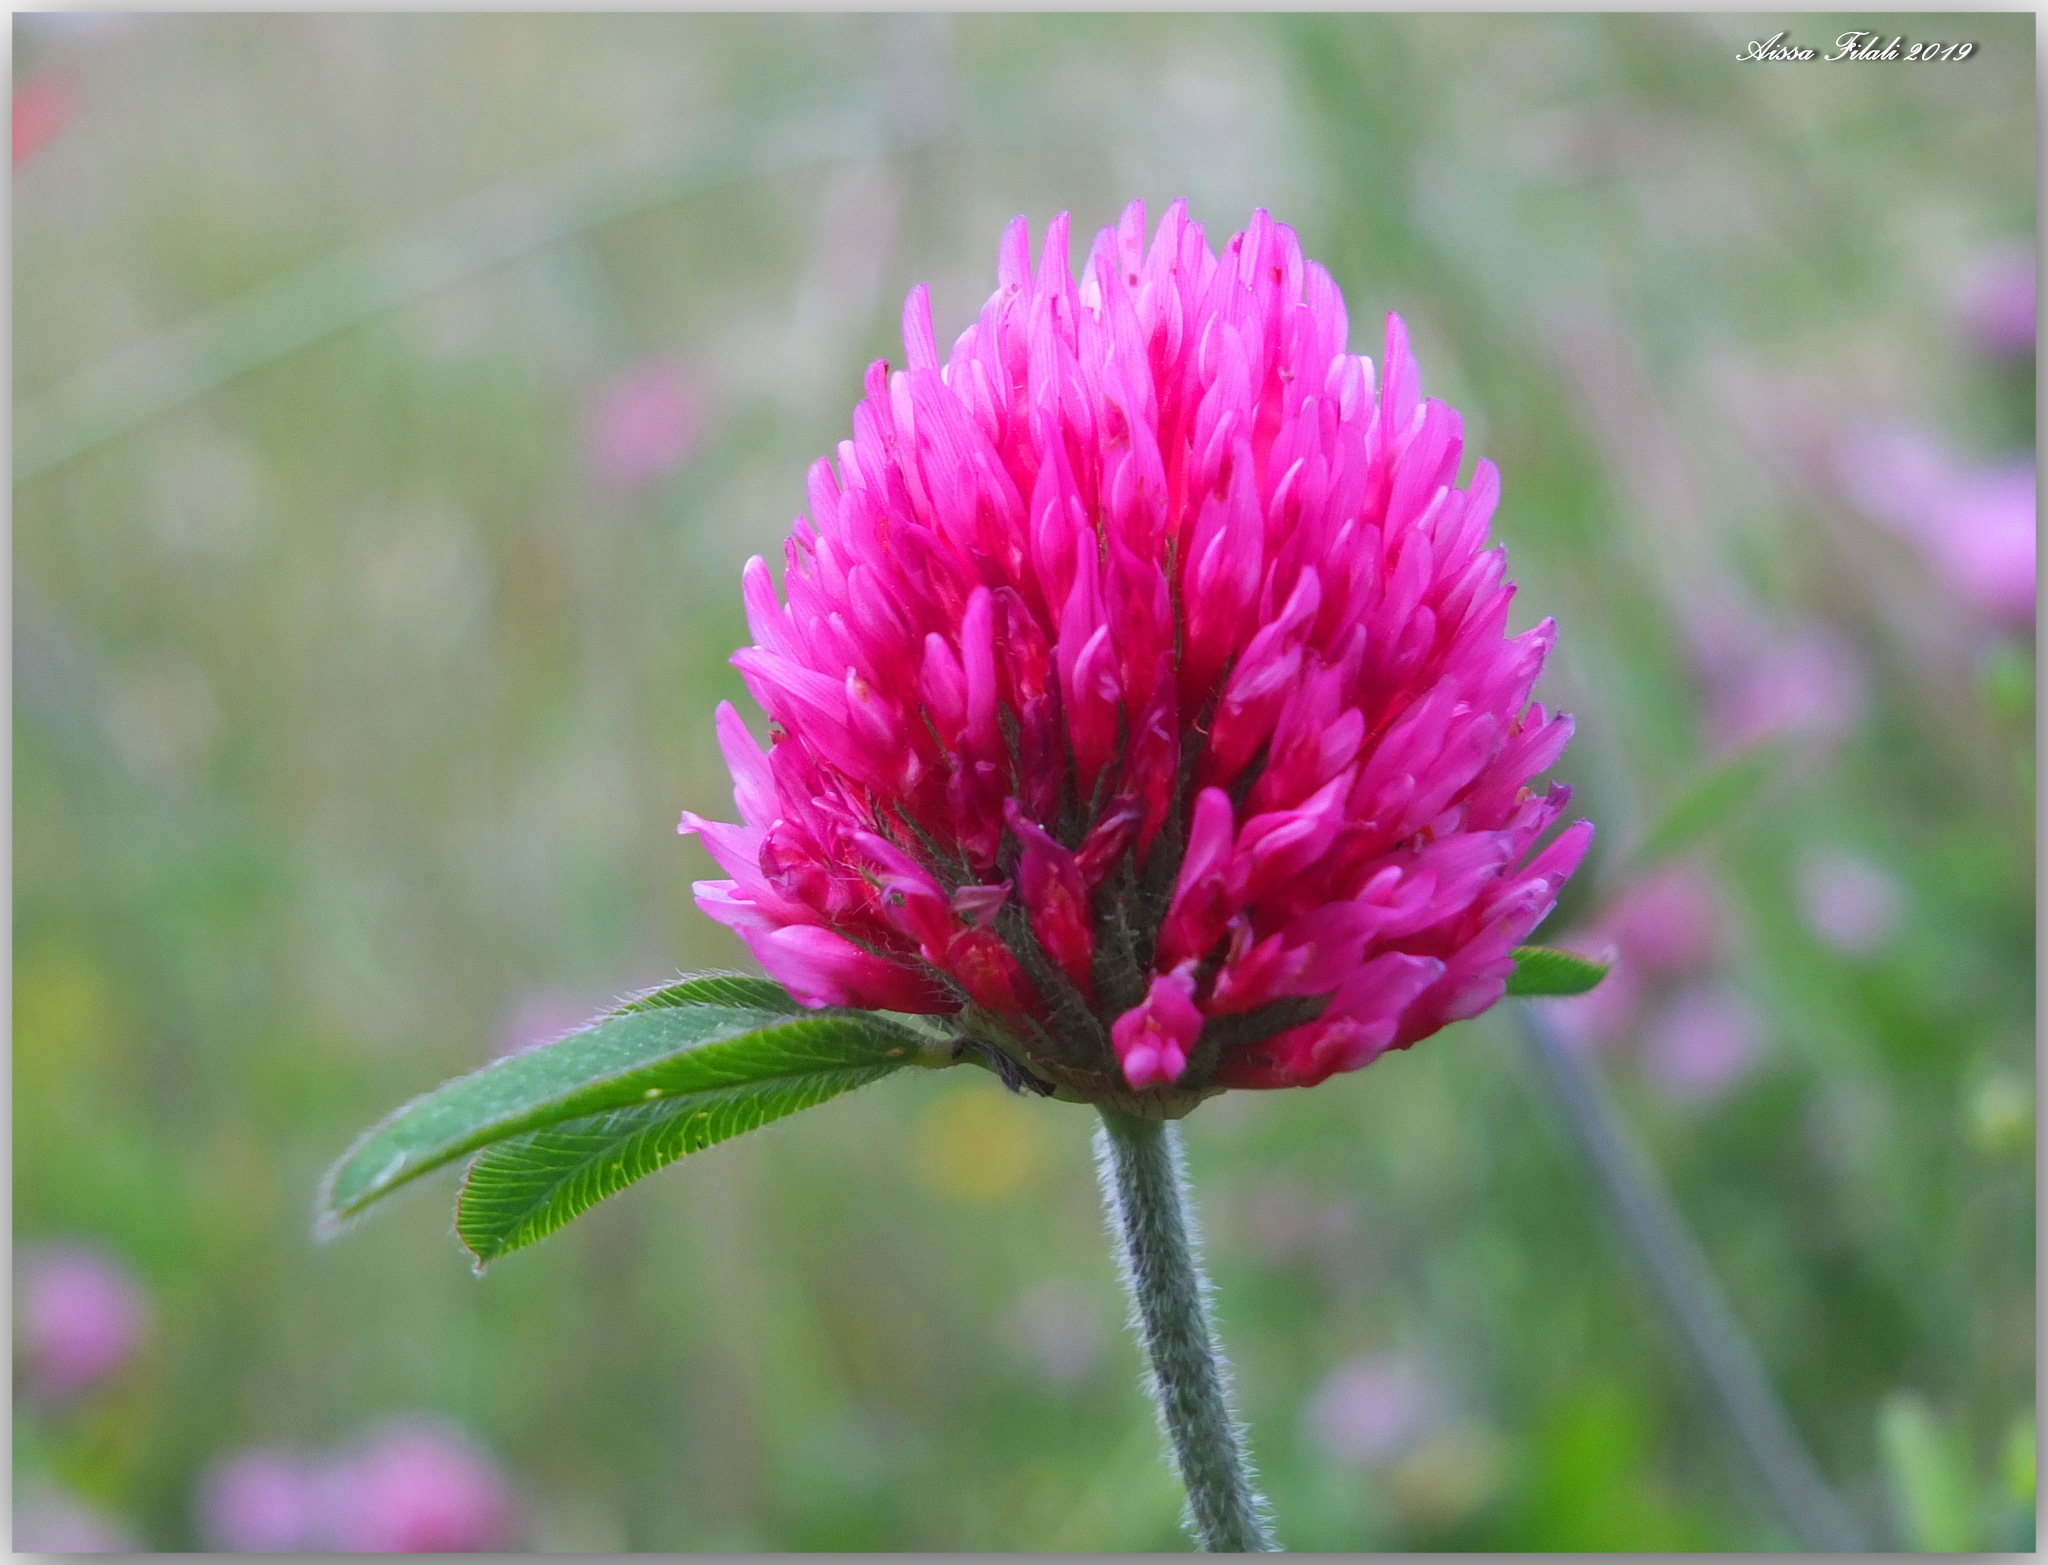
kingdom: Plantae
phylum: Tracheophyta
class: Magnoliopsida
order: Fabales
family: Fabaceae
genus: Trifolium
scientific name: Trifolium pratense
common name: Red clover
